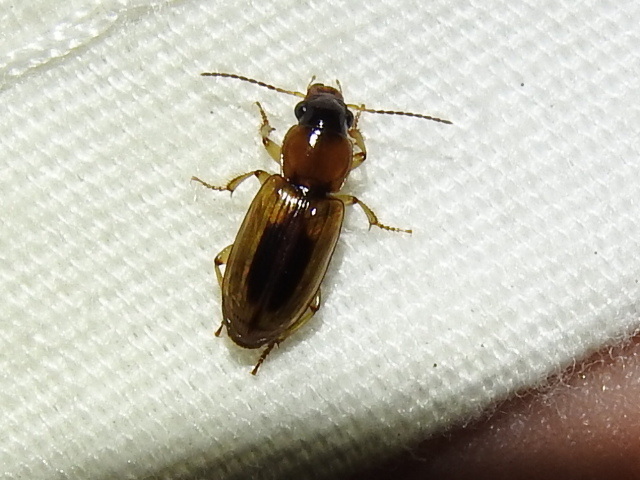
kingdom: Animalia
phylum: Arthropoda
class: Insecta
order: Coleoptera
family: Carabidae
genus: Stenolophus
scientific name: Stenolophus lecontei
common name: Leconte's seedcorn beetle
